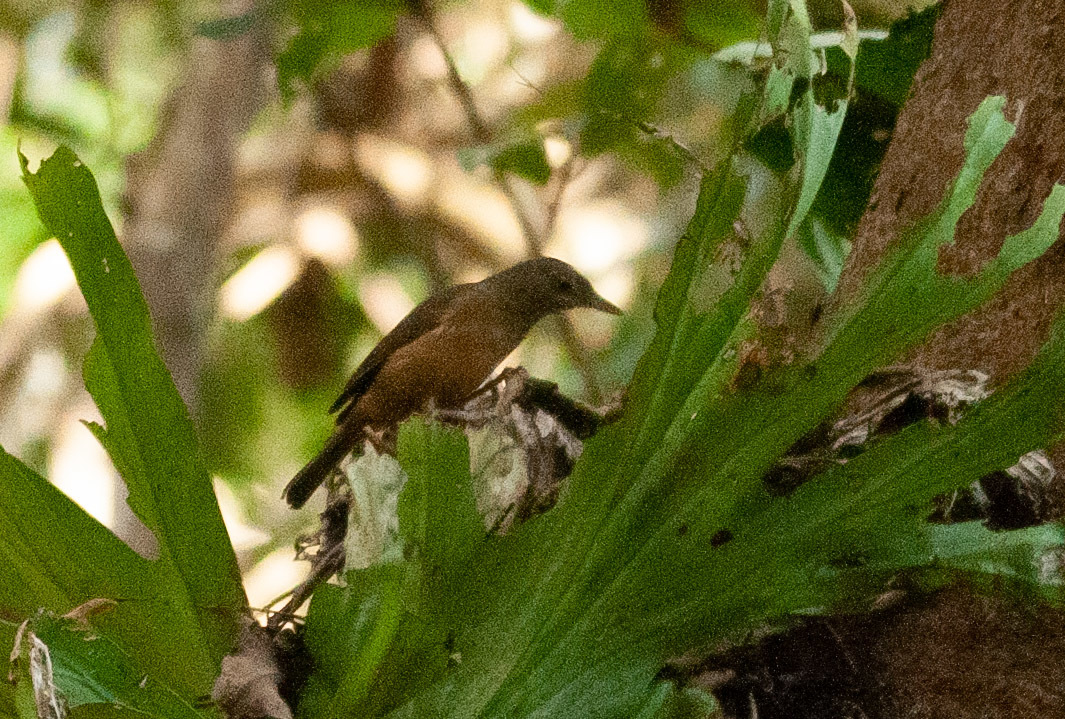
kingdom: Animalia
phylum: Chordata
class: Aves
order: Passeriformes
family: Pachycephalidae
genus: Colluricincla
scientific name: Colluricincla rufogaster
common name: Rufous shrikethrush
